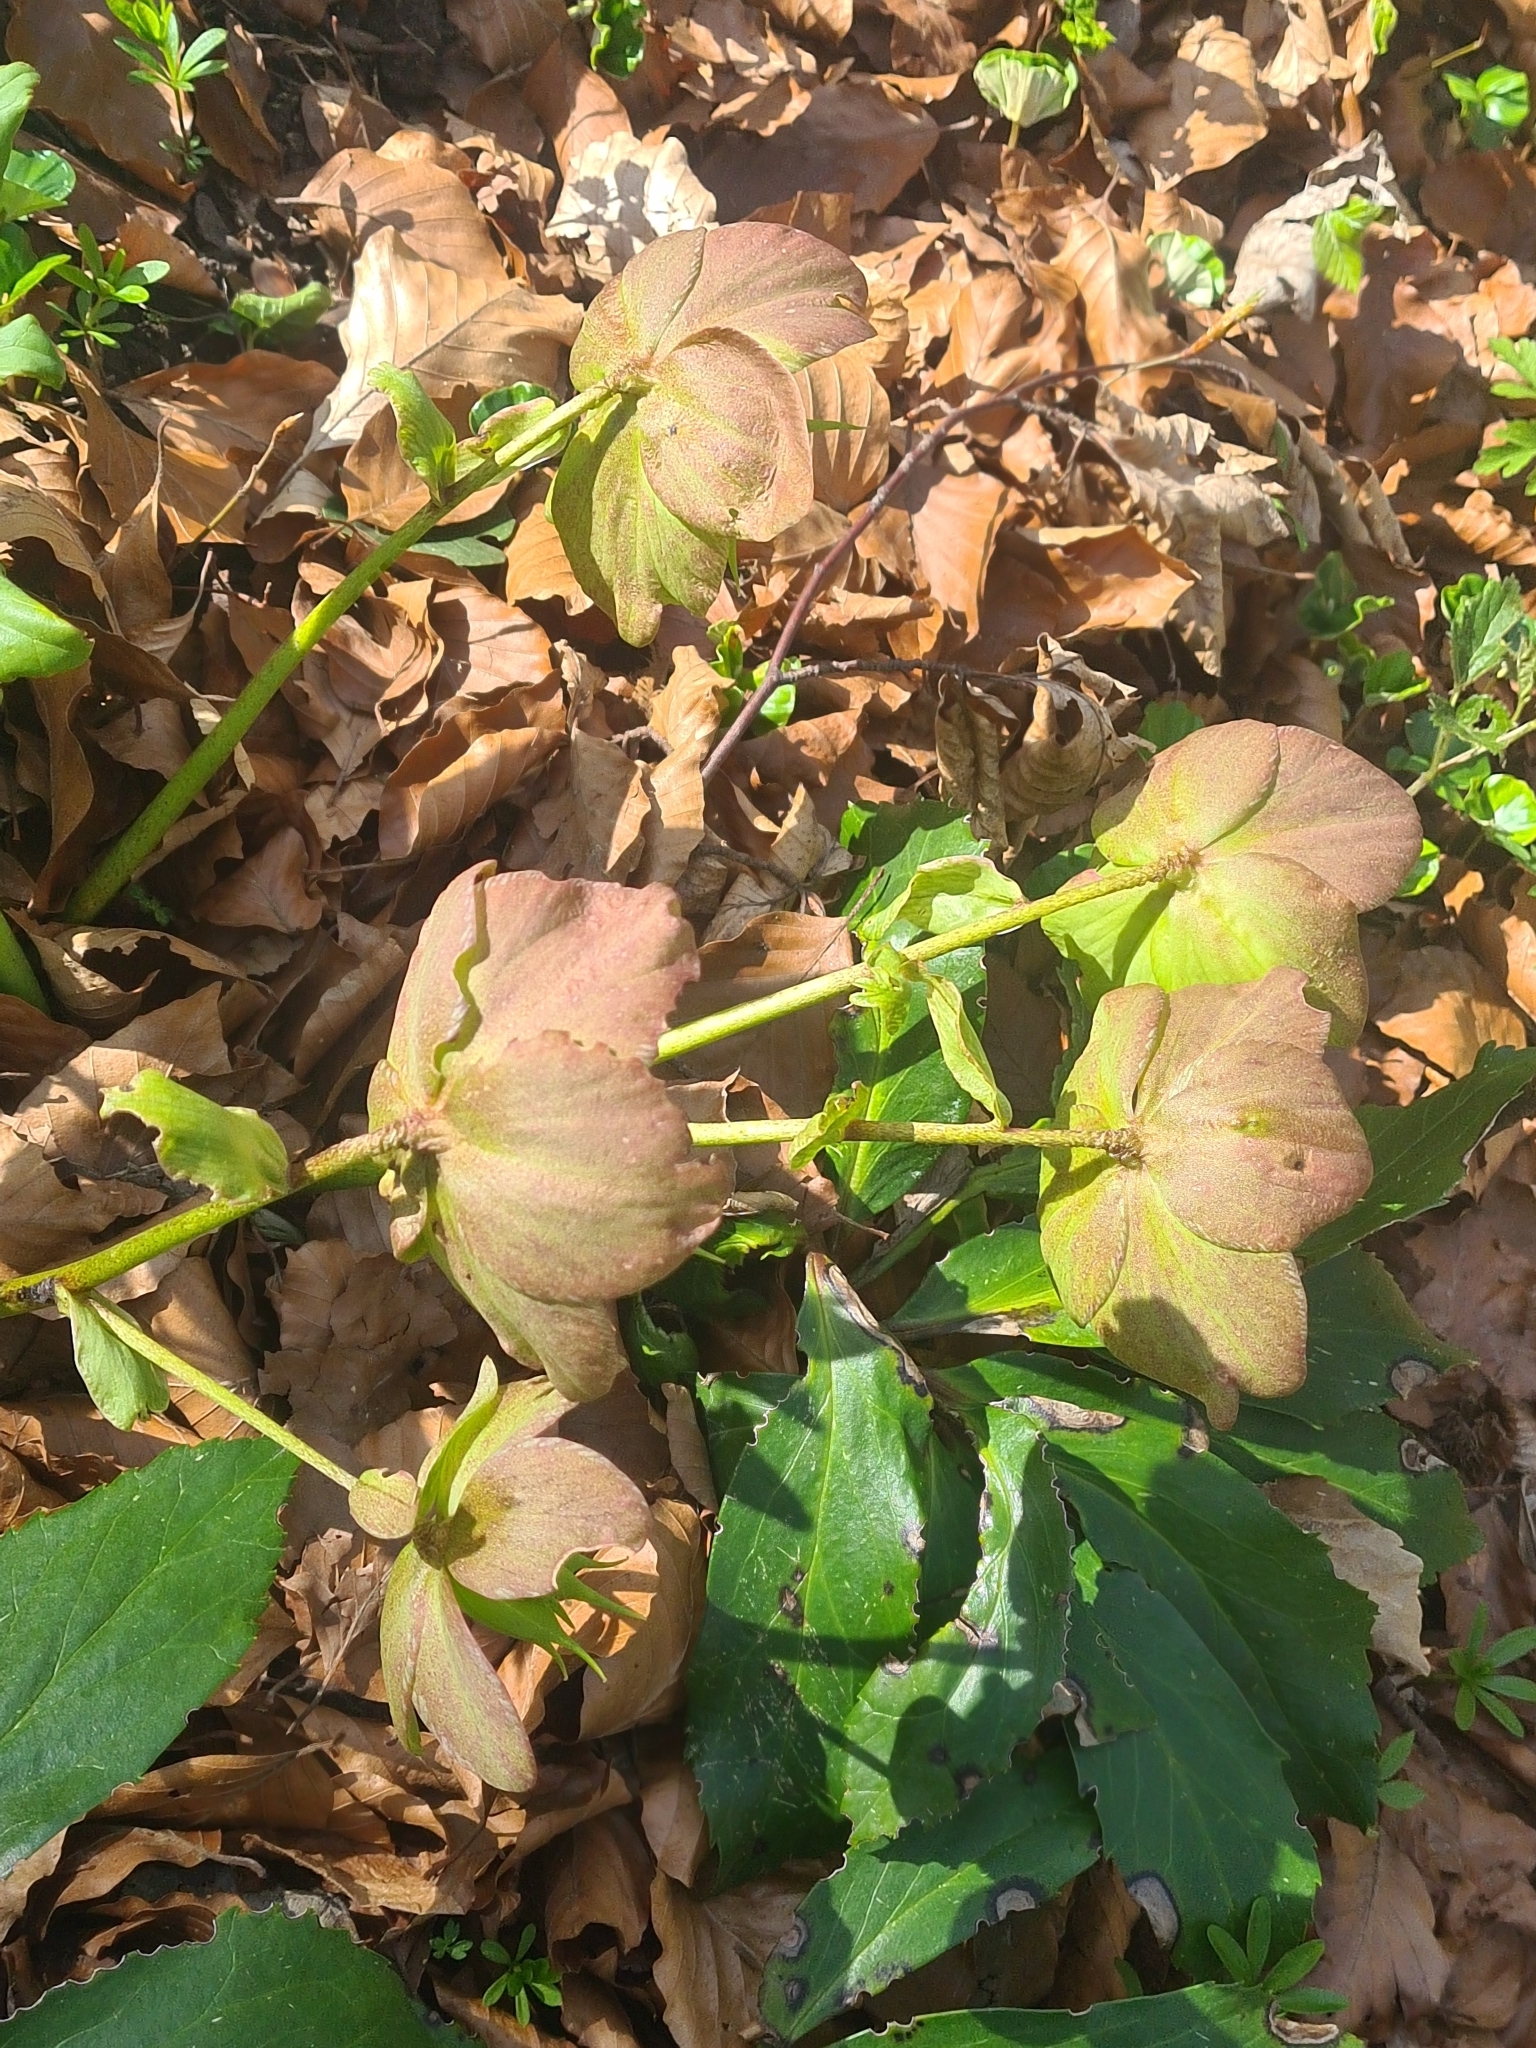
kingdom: Plantae
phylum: Tracheophyta
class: Magnoliopsida
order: Ranunculales
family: Ranunculaceae
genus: Helleborus
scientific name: Helleborus niger
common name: Black hellebore
